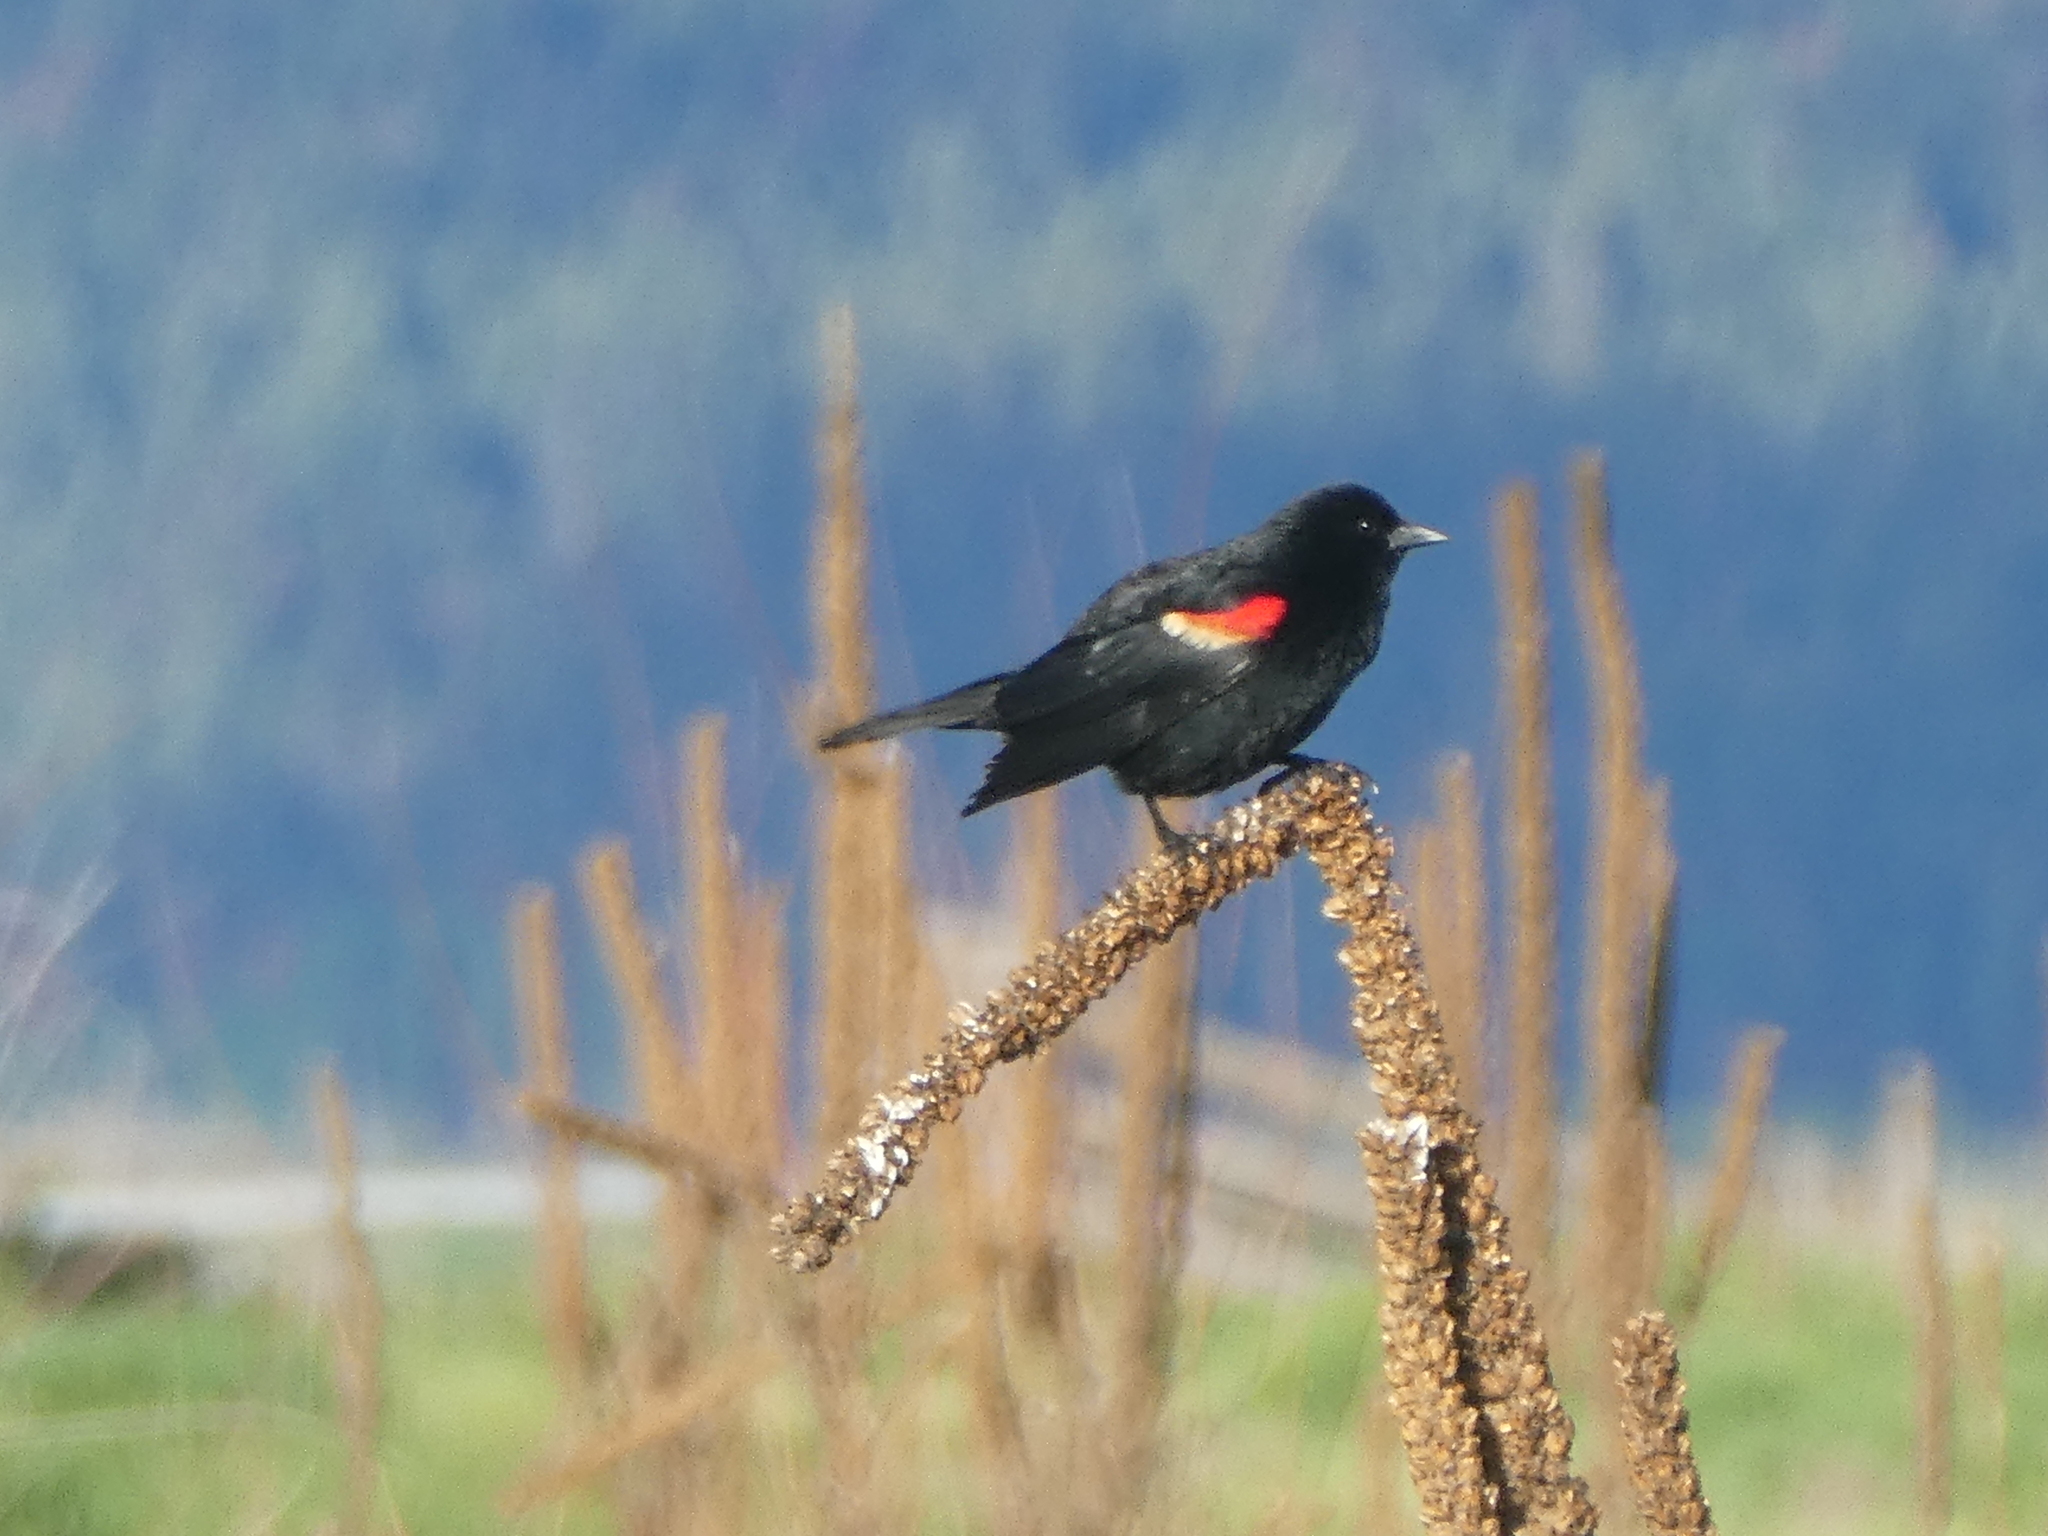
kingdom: Animalia
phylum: Chordata
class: Aves
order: Passeriformes
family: Icteridae
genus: Agelaius
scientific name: Agelaius phoeniceus
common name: Red-winged blackbird
